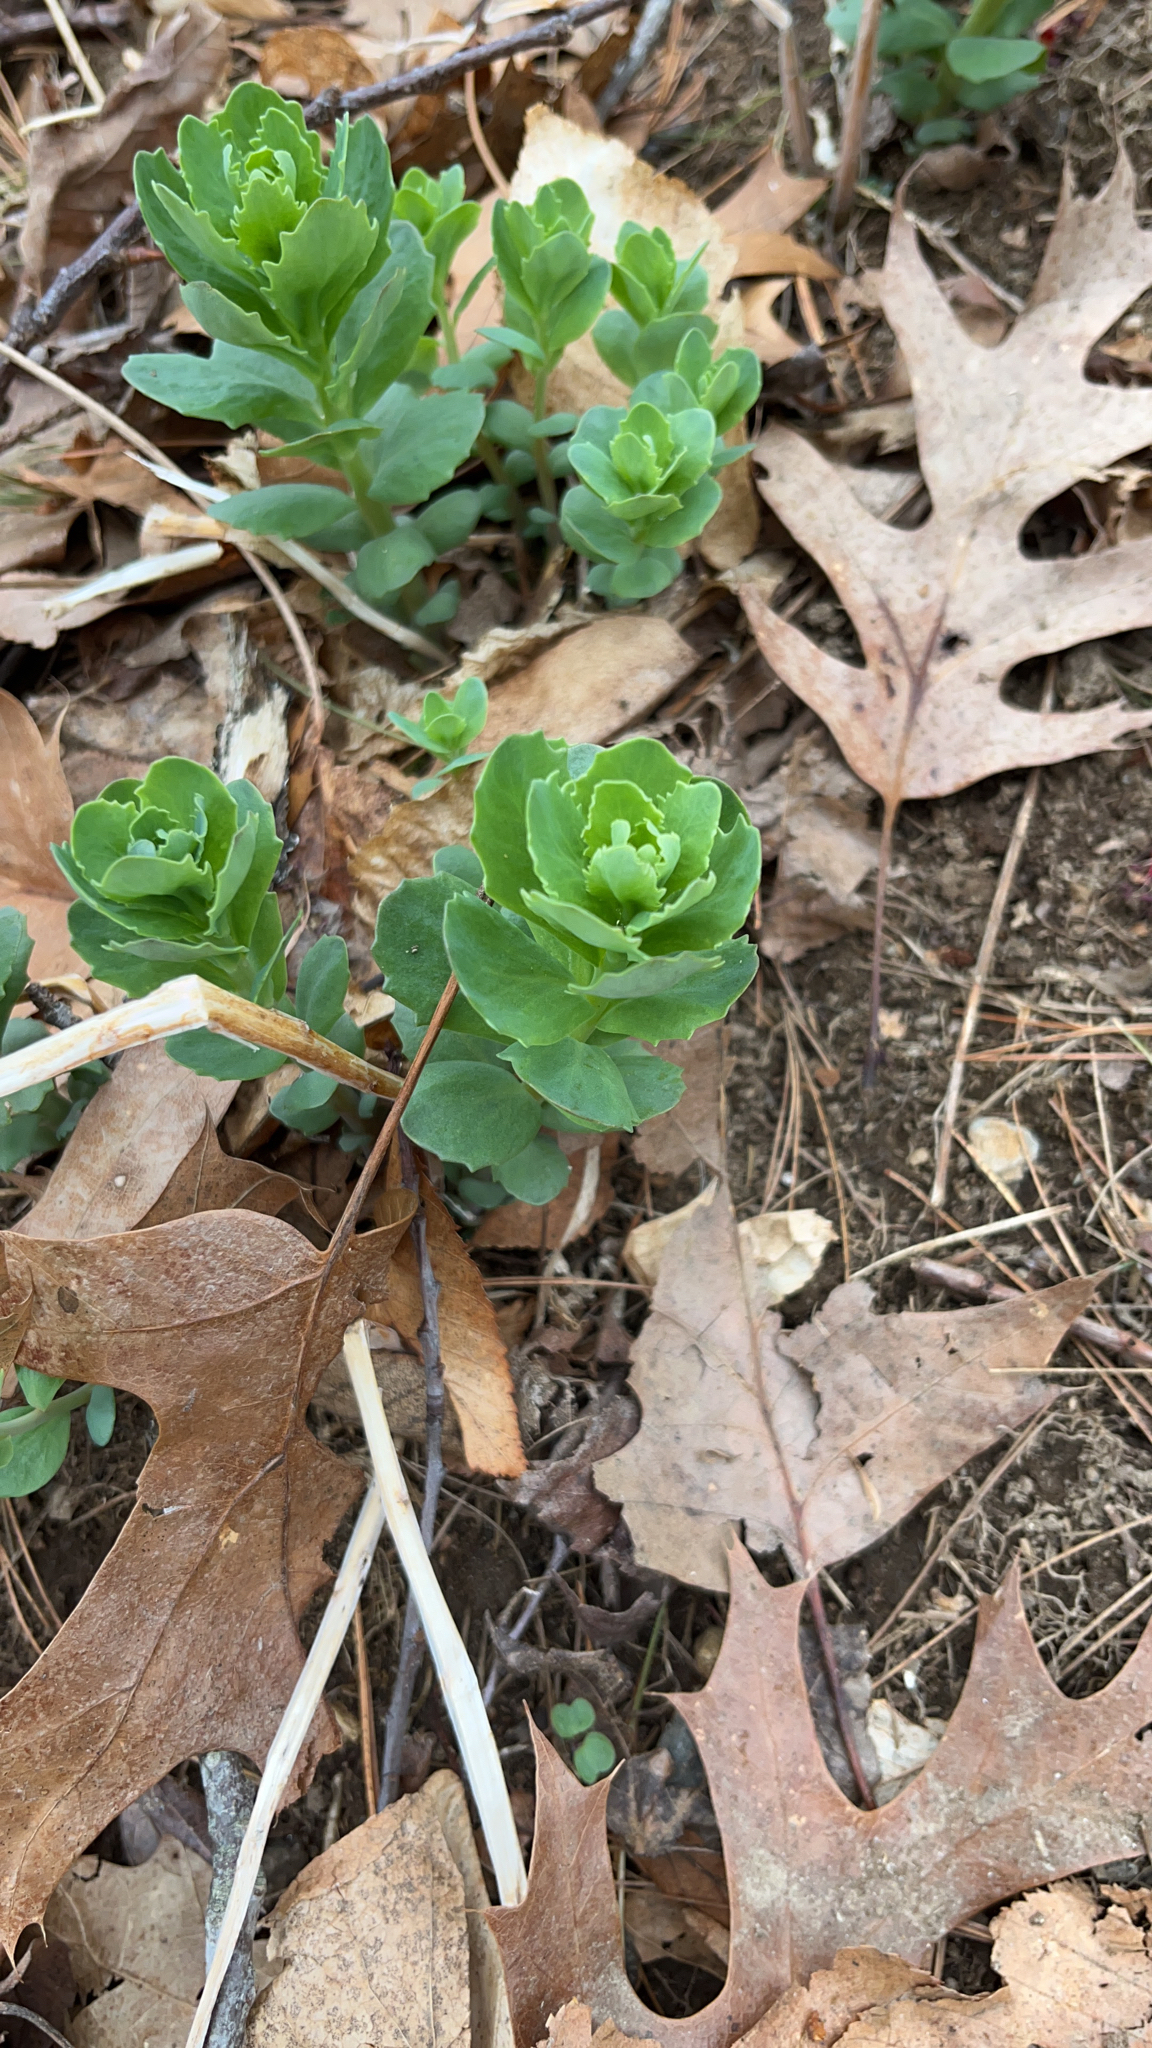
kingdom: Plantae
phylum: Tracheophyta
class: Magnoliopsida
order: Saxifragales
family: Crassulaceae
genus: Hylotelephium
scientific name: Hylotelephium telephium
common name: Live-forever
